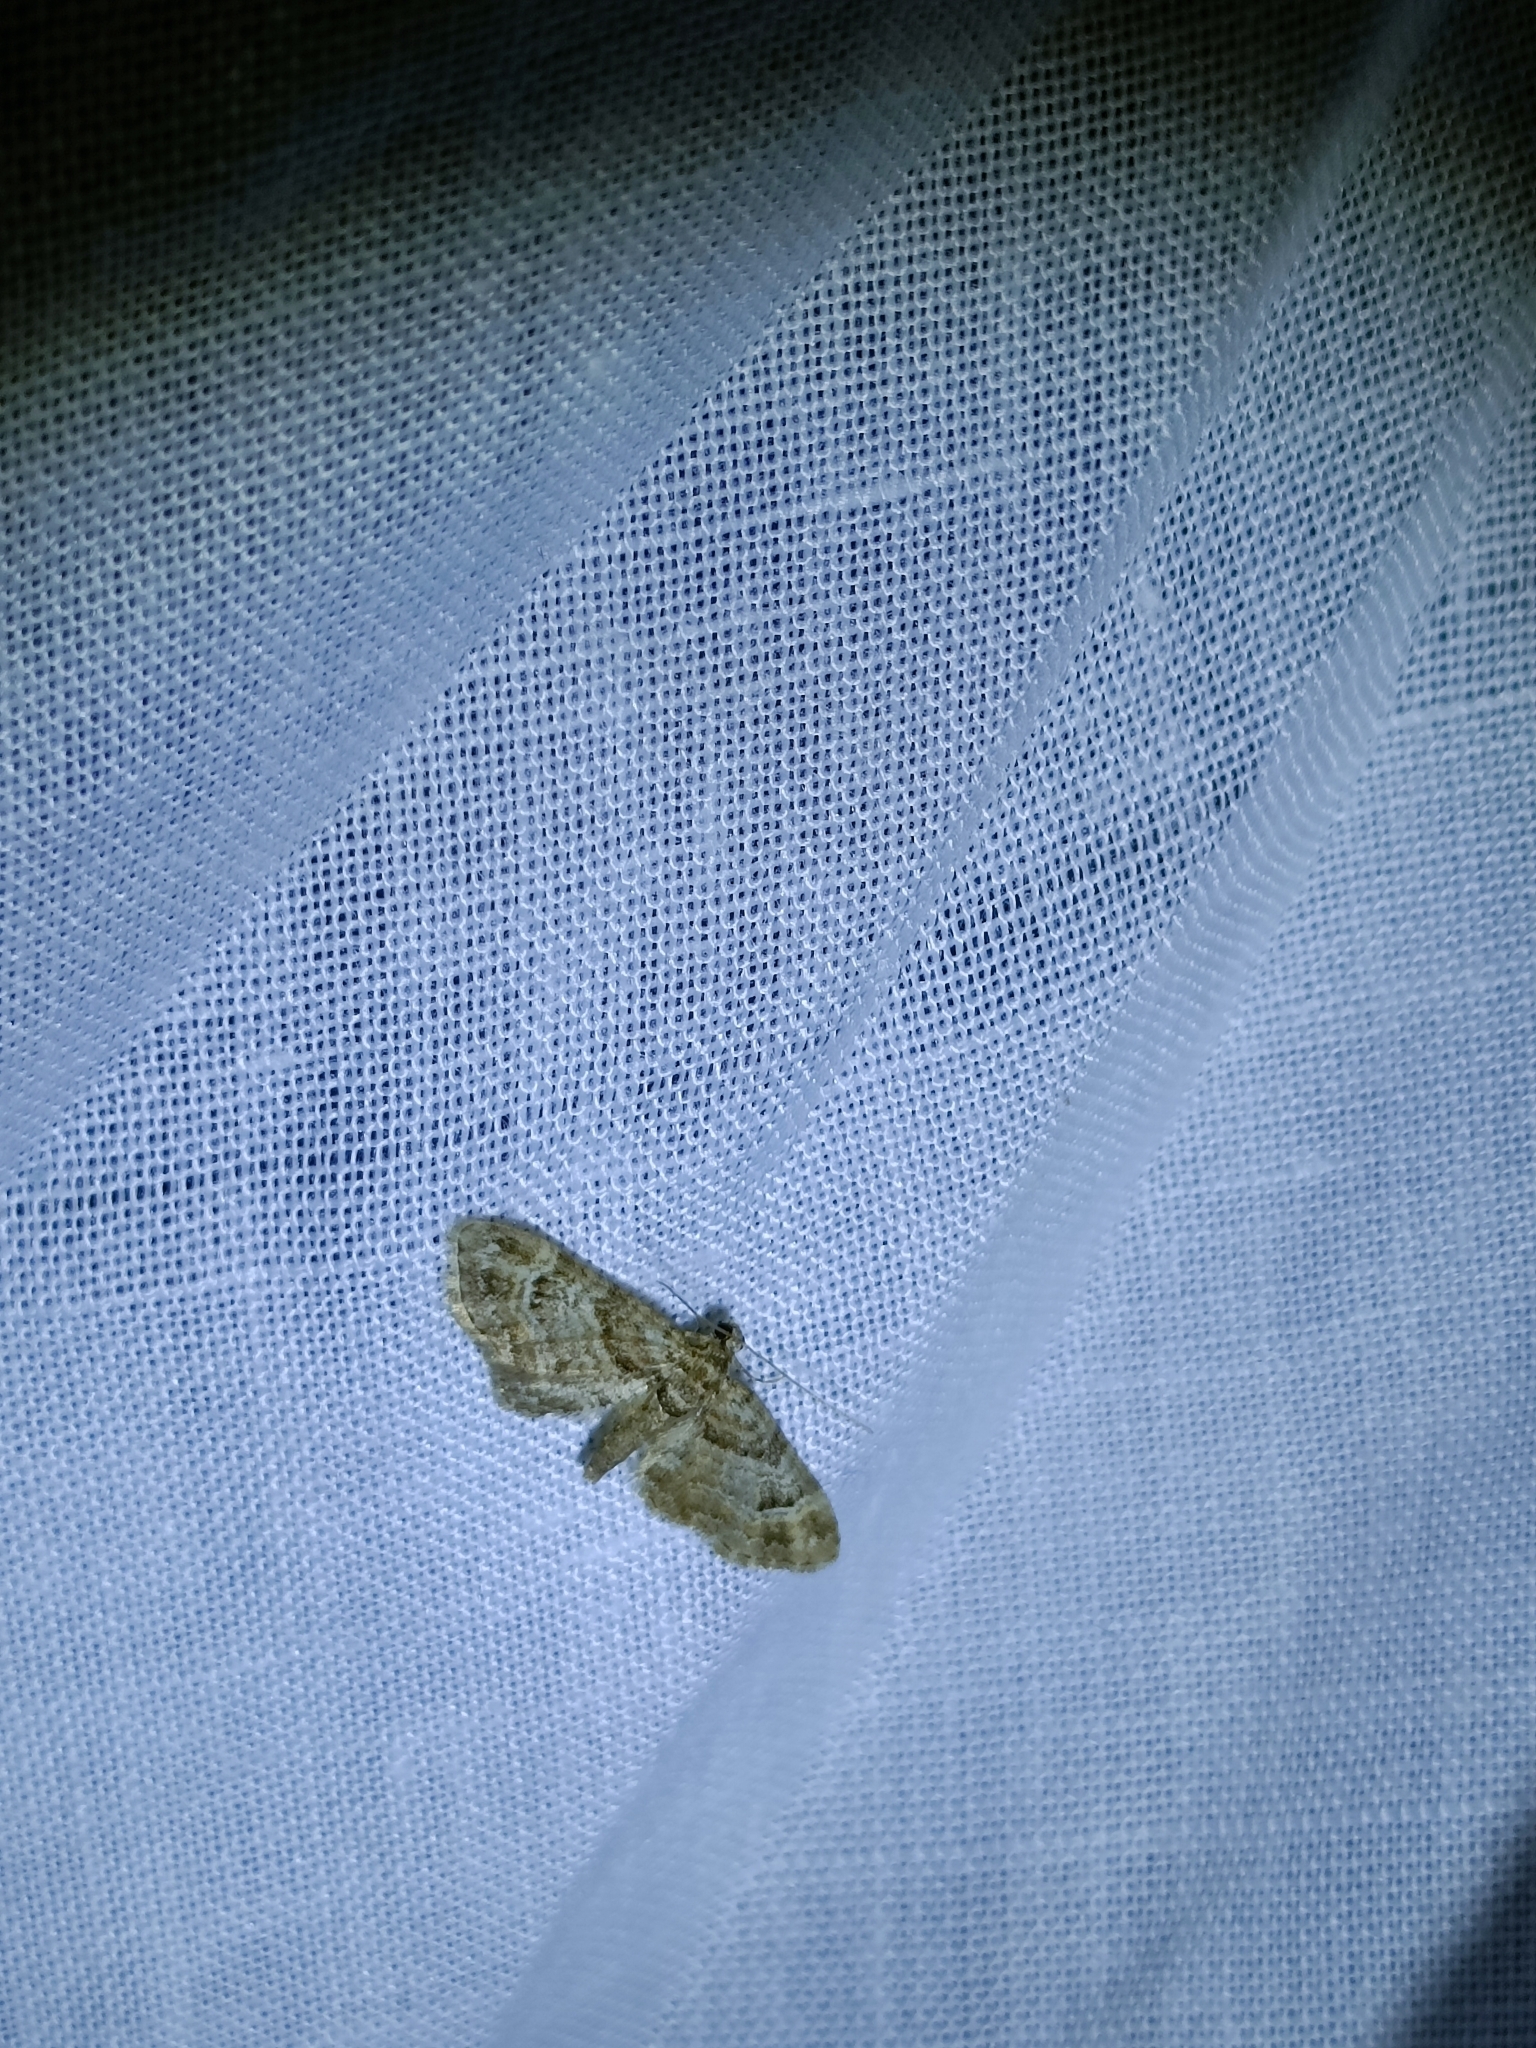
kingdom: Animalia
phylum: Arthropoda
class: Insecta
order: Lepidoptera
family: Geometridae
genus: Gymnoscelis
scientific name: Gymnoscelis rufifasciata
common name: Double-striped pug
